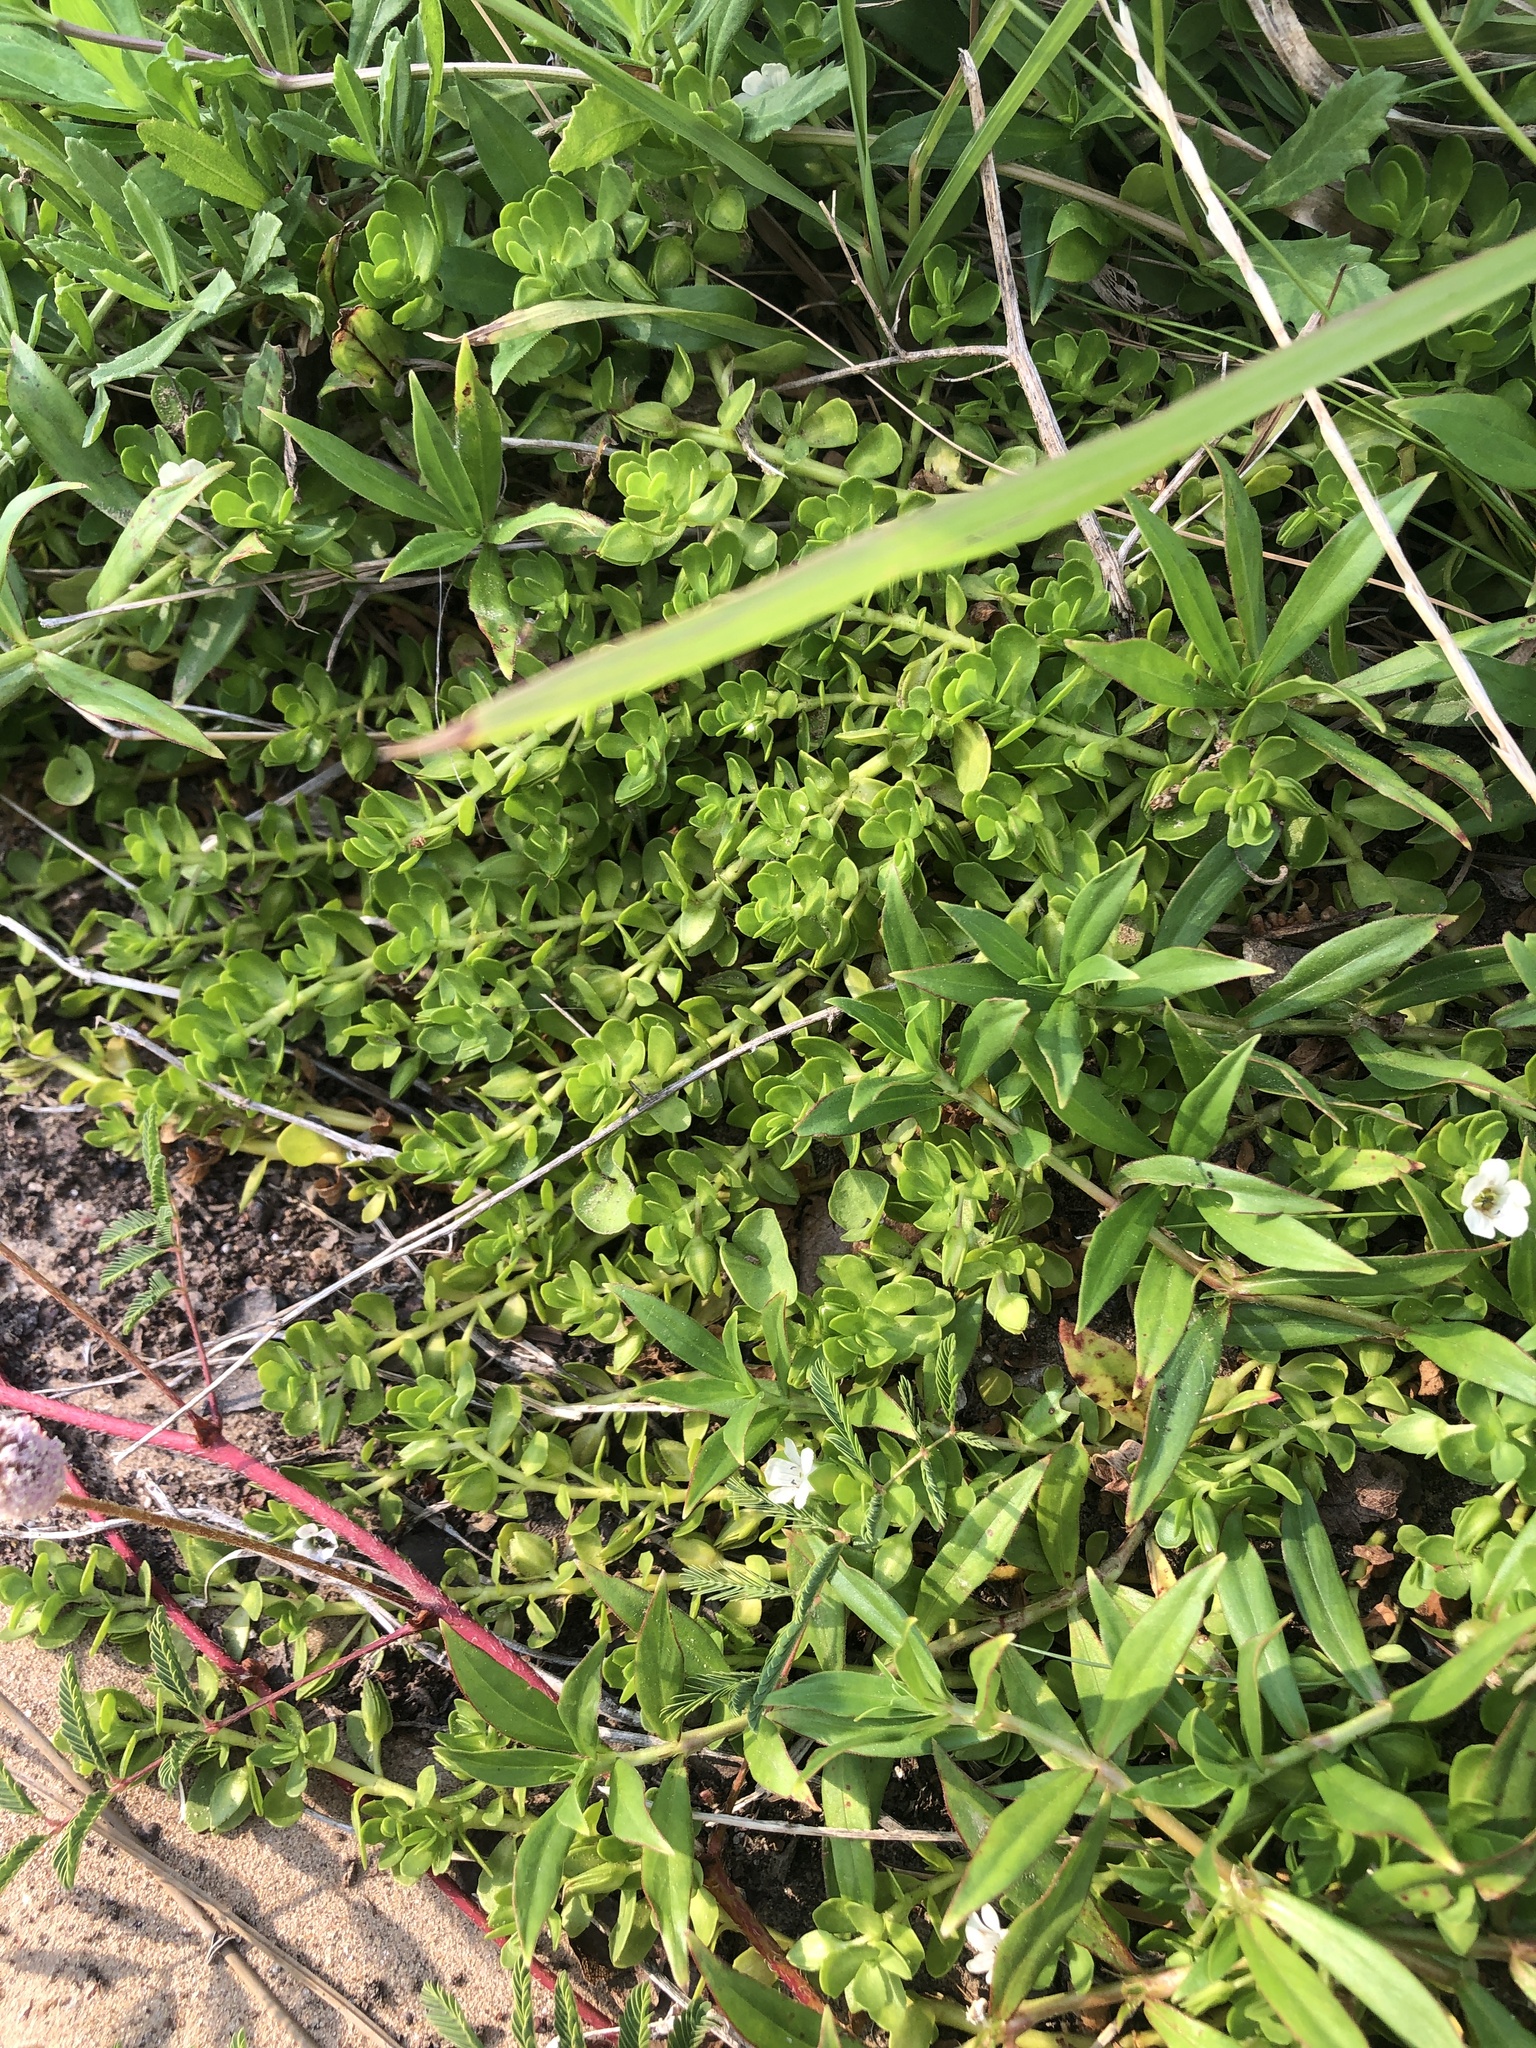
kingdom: Plantae
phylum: Tracheophyta
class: Magnoliopsida
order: Lamiales
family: Plantaginaceae
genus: Bacopa
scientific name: Bacopa monnieri
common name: Indian-pennywort
